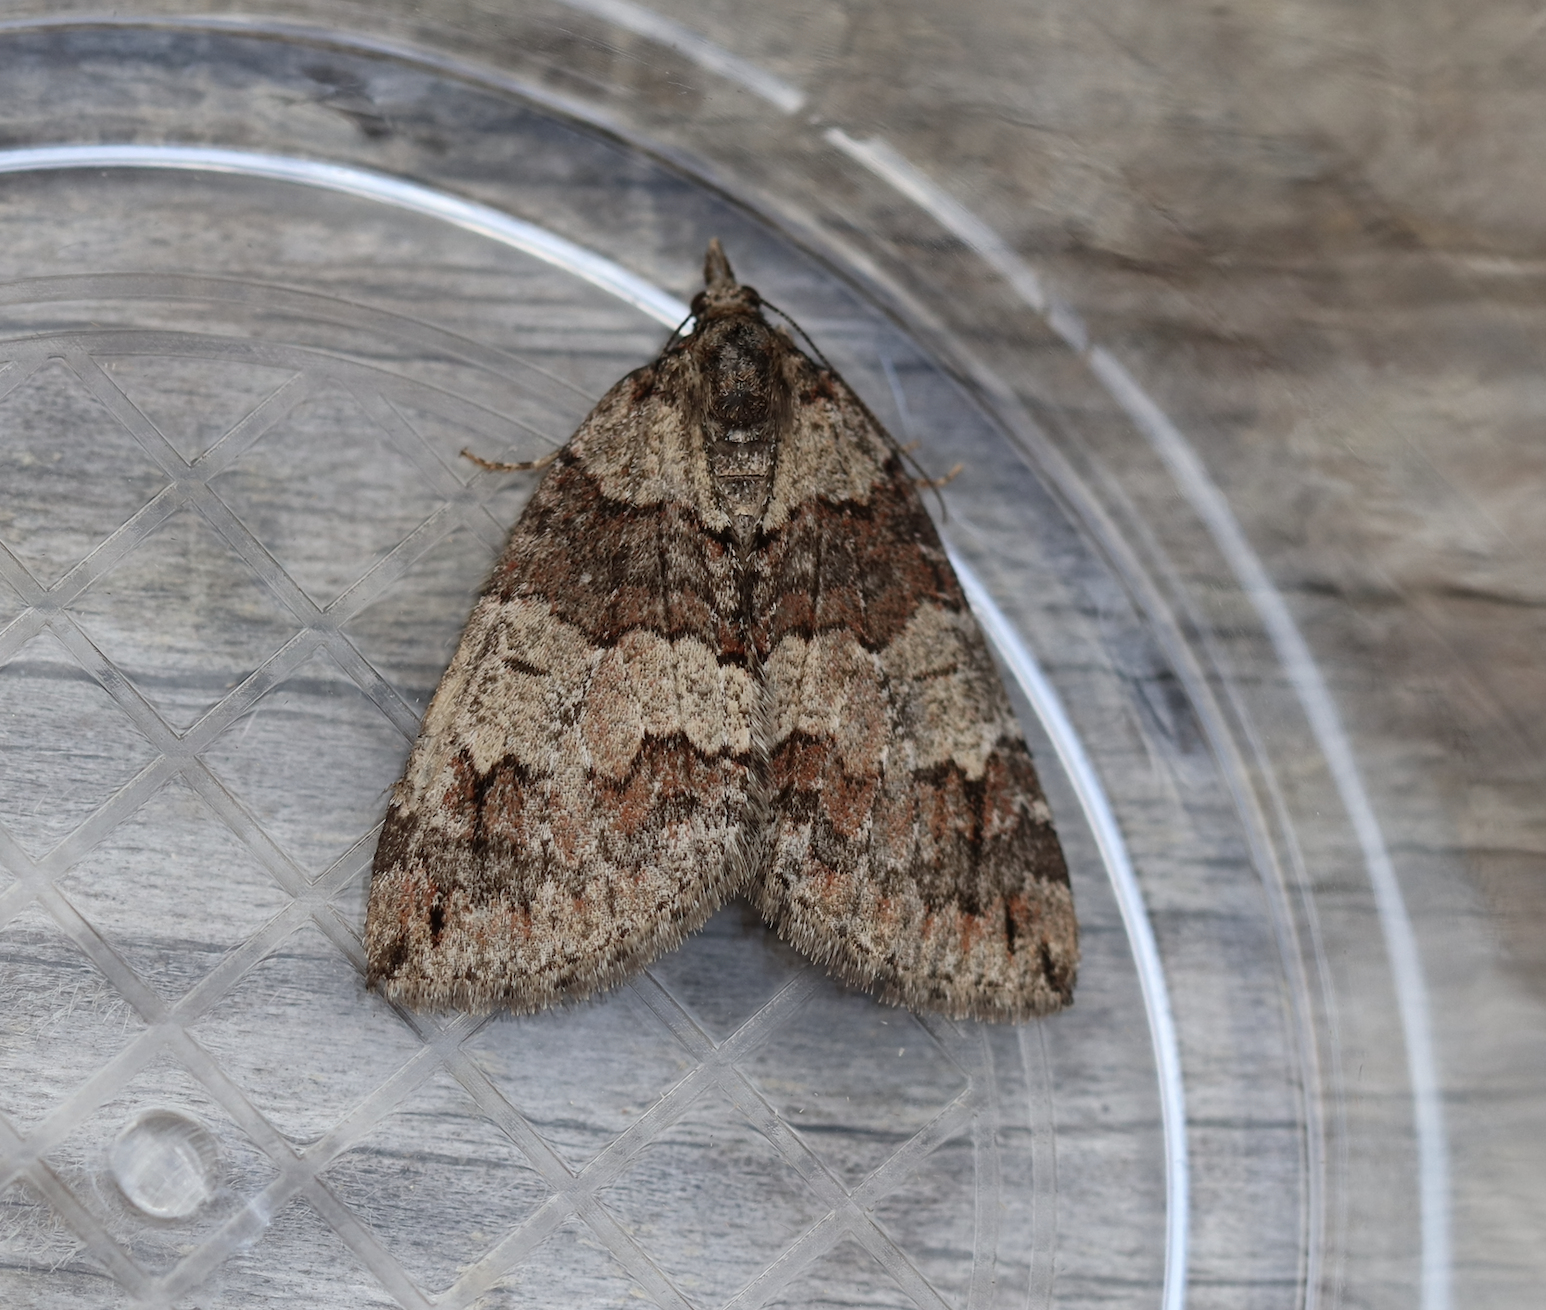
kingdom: Animalia
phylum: Arthropoda
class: Insecta
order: Lepidoptera
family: Geometridae
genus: Hydriomena
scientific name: Hydriomena ruberata
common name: Ruddy highflyer
